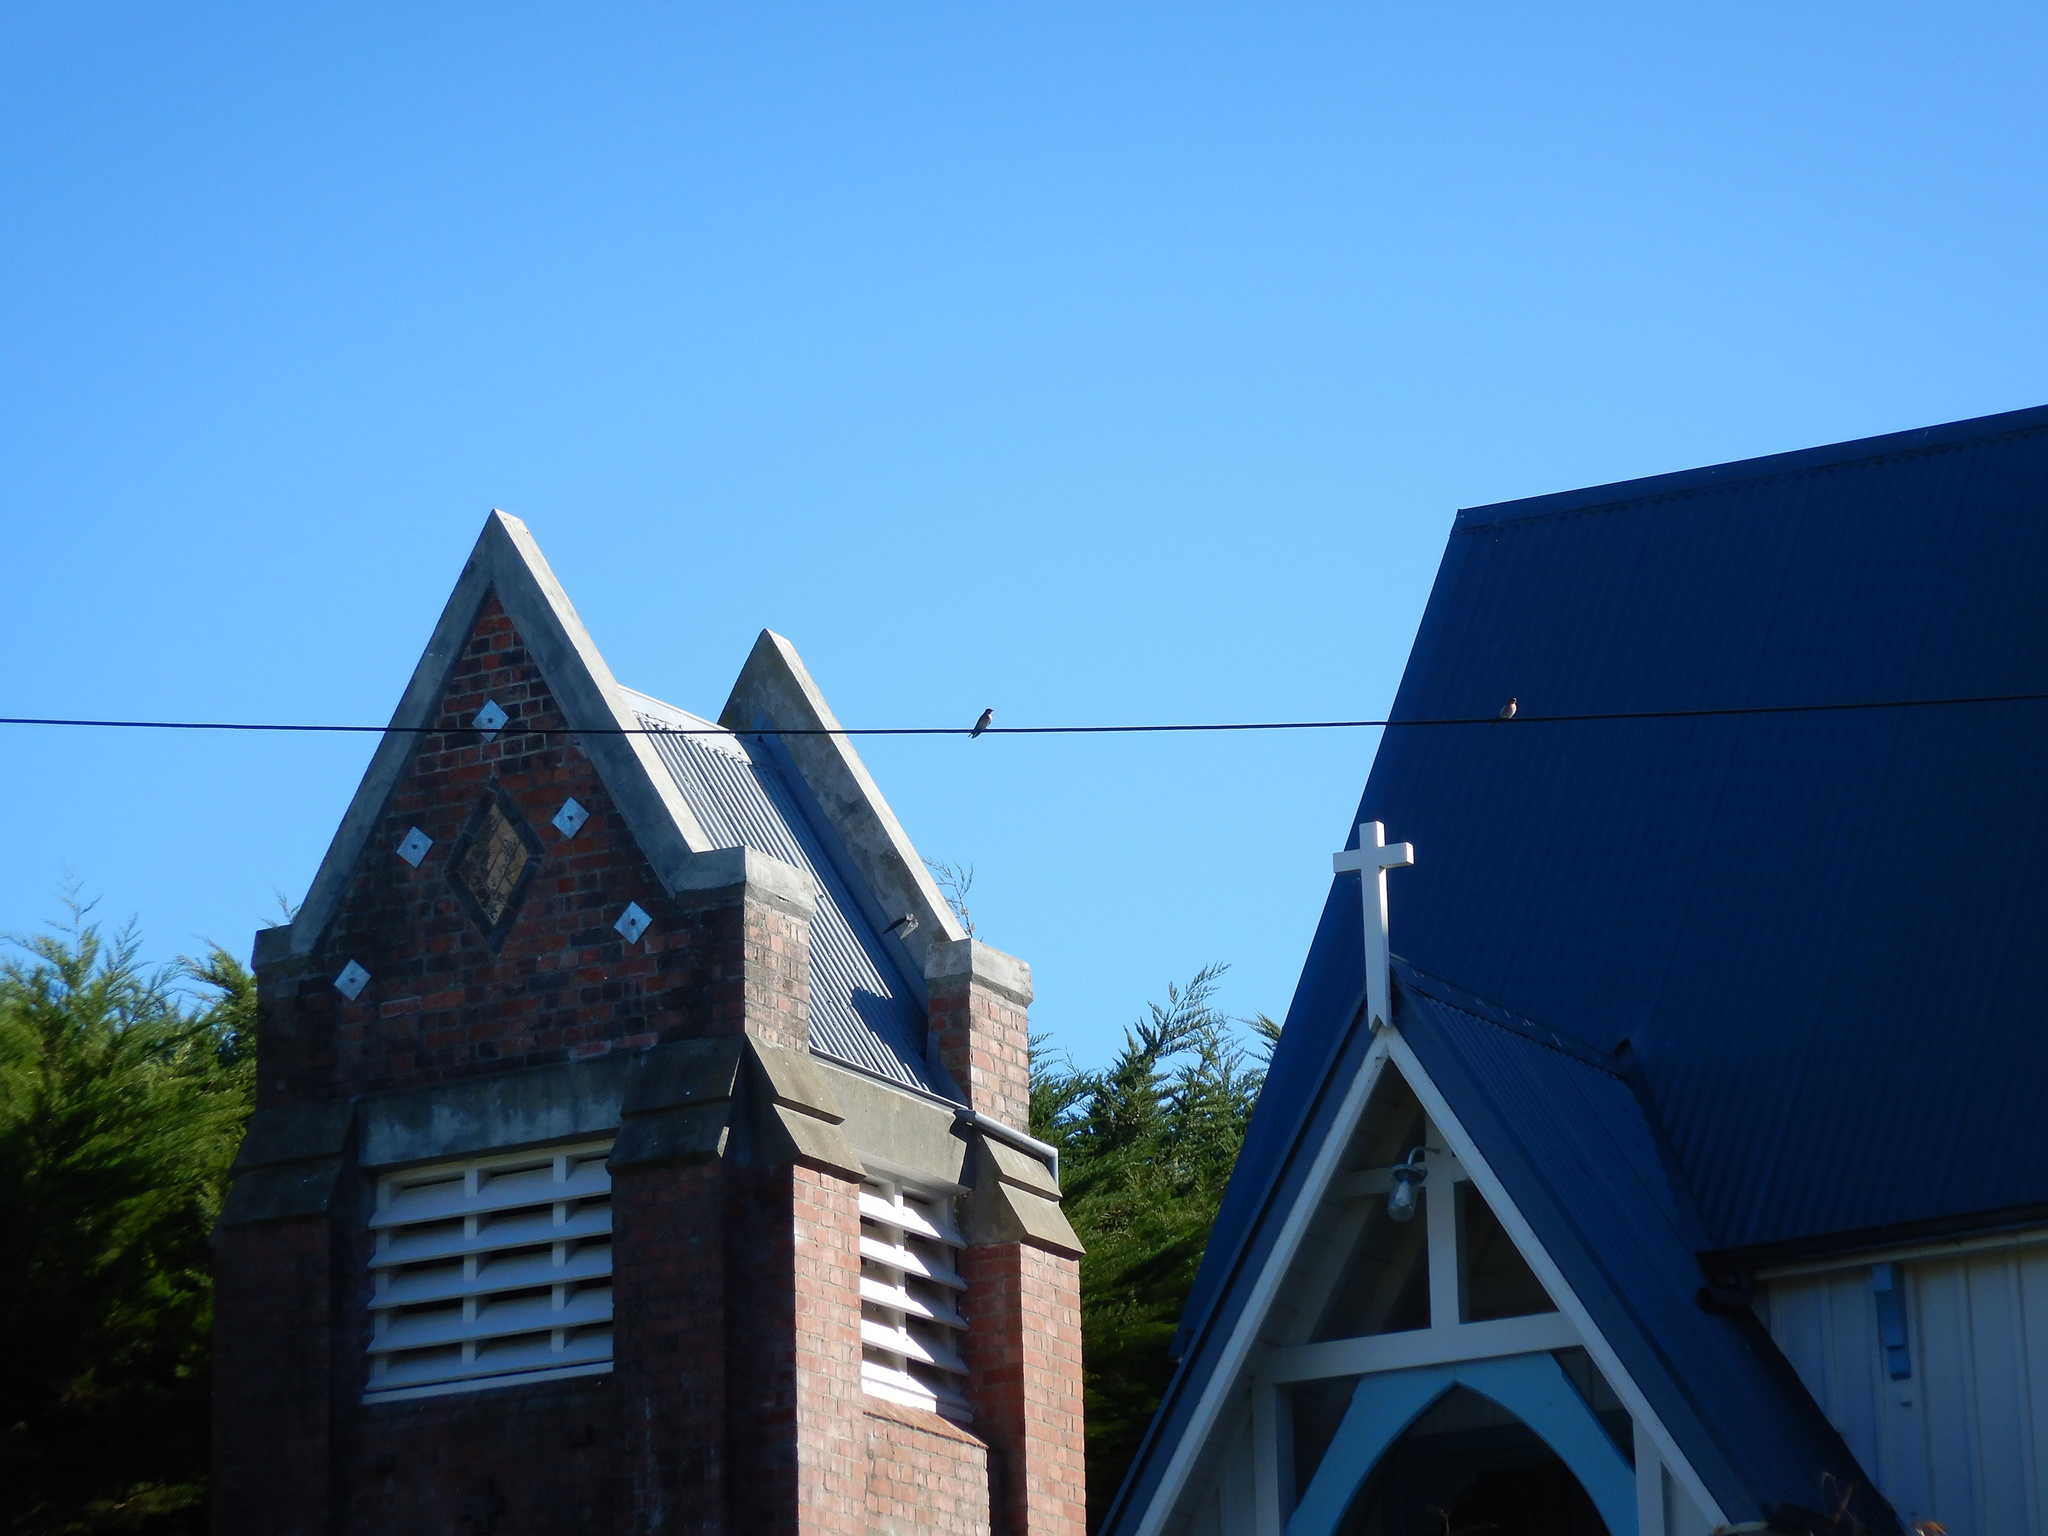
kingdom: Animalia
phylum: Chordata
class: Aves
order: Passeriformes
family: Hirundinidae
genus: Hirundo
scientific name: Hirundo neoxena
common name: Welcome swallow
